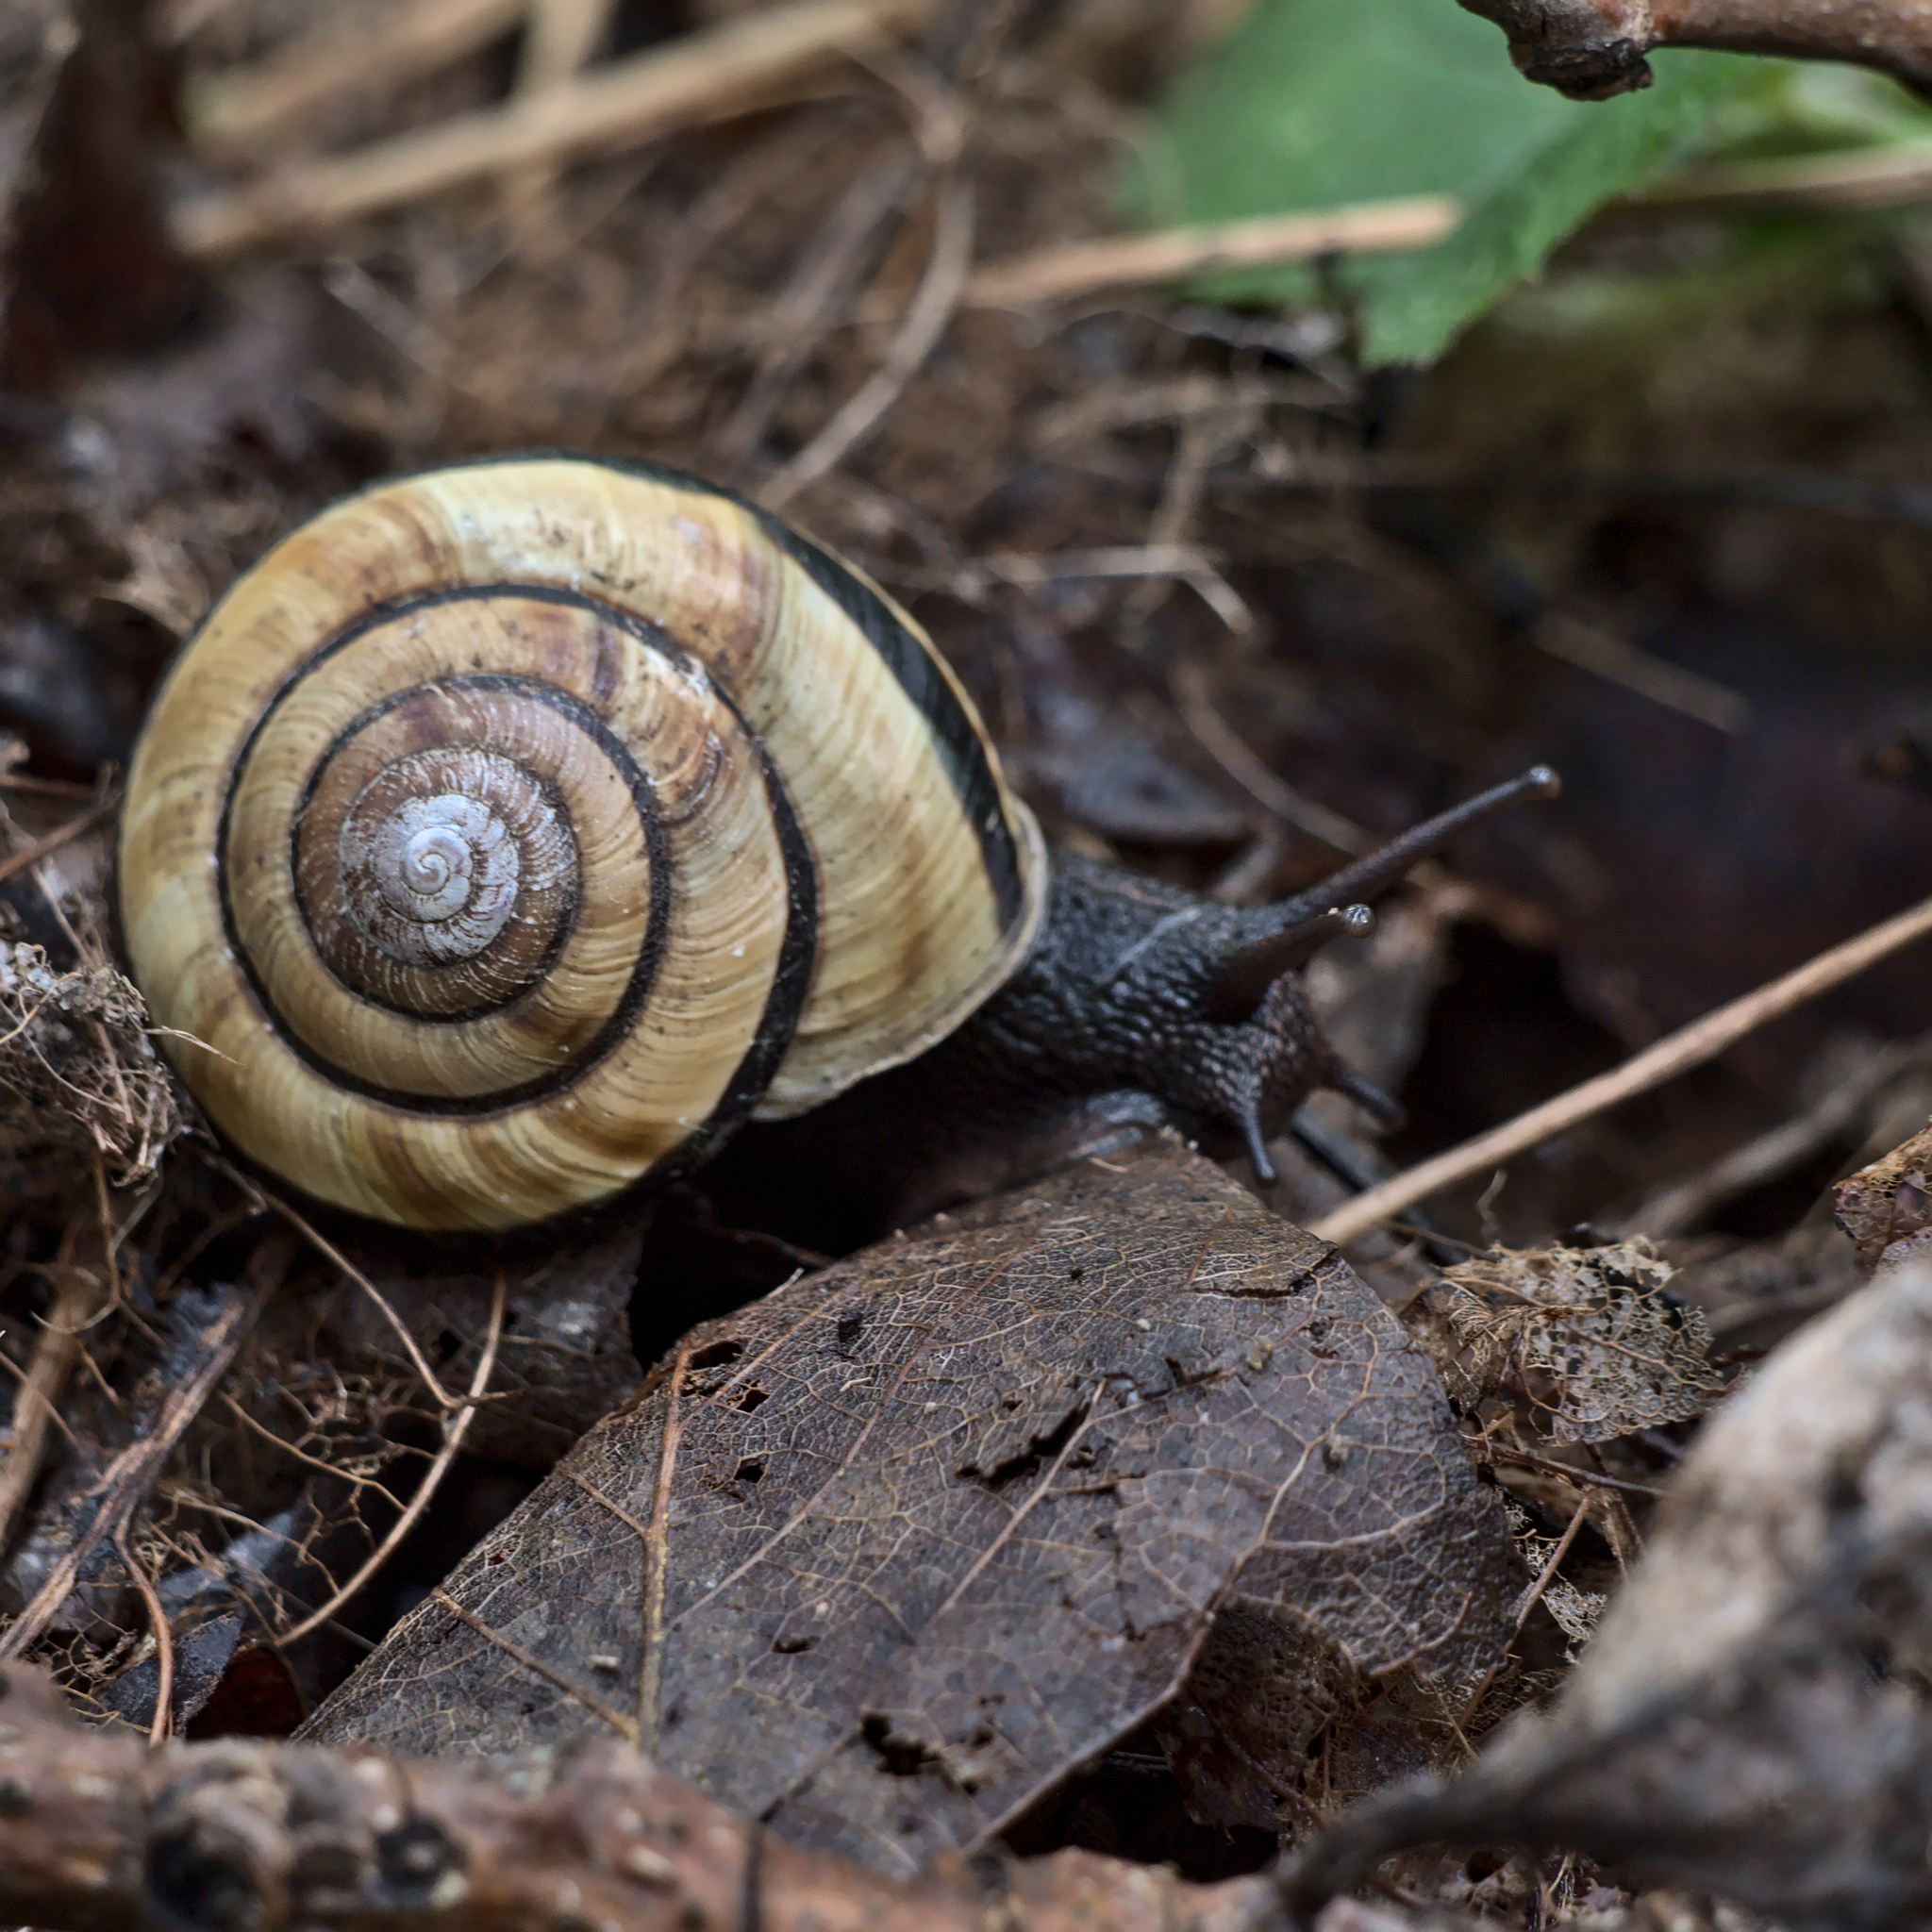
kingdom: Animalia
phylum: Mollusca
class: Gastropoda
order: Stylommatophora
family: Xanthonychidae
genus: Monadenia
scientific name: Monadenia fidelis
